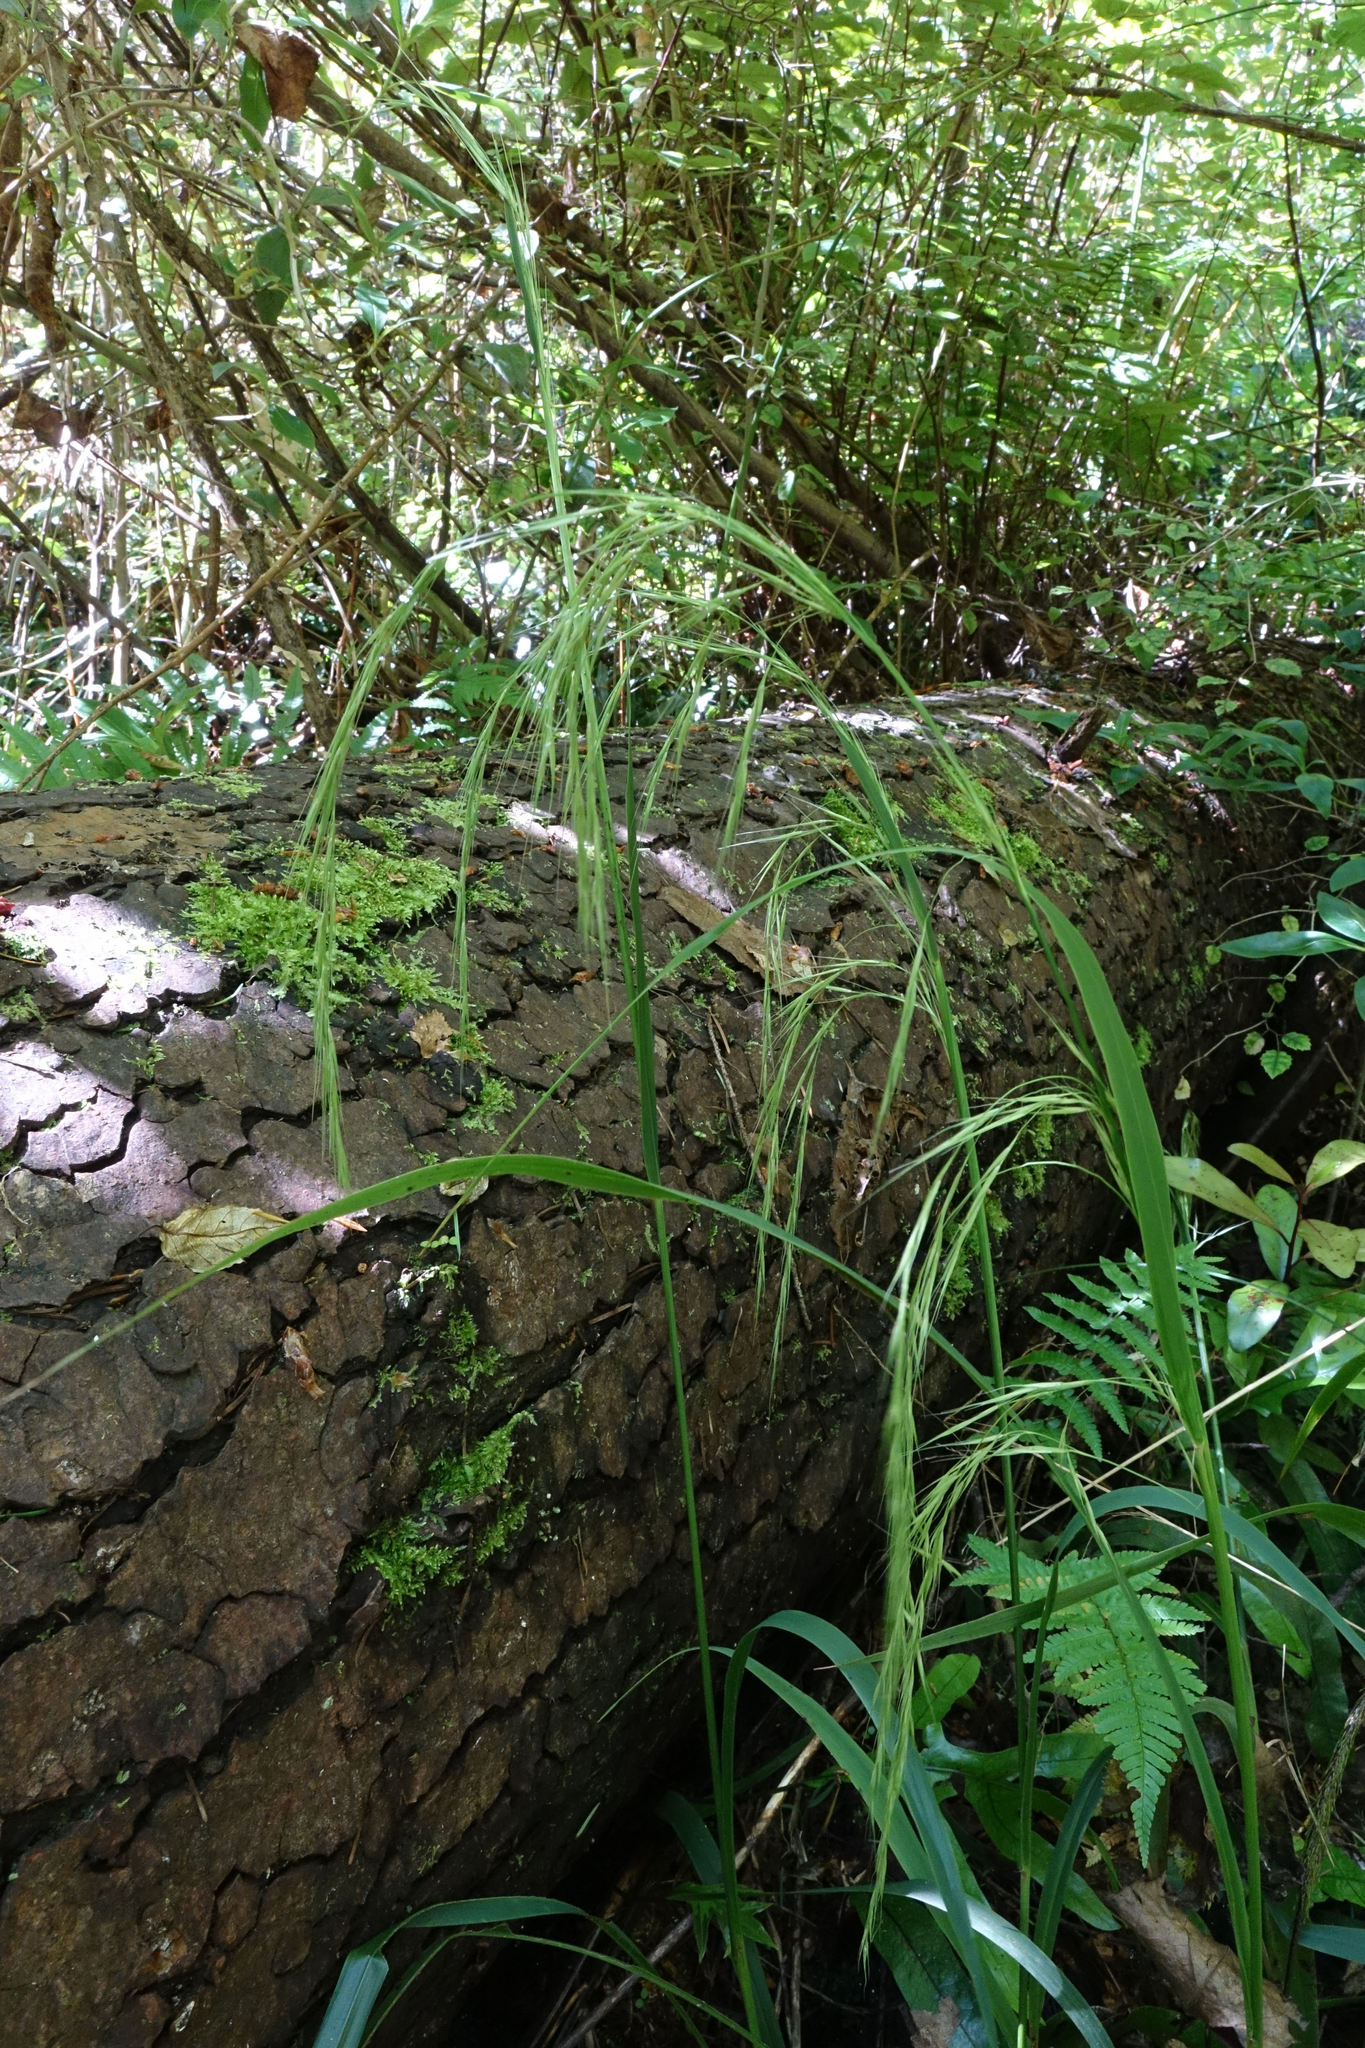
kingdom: Plantae
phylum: Tracheophyta
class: Liliopsida
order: Poales
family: Poaceae
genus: Ehrharta
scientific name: Ehrharta diplax
